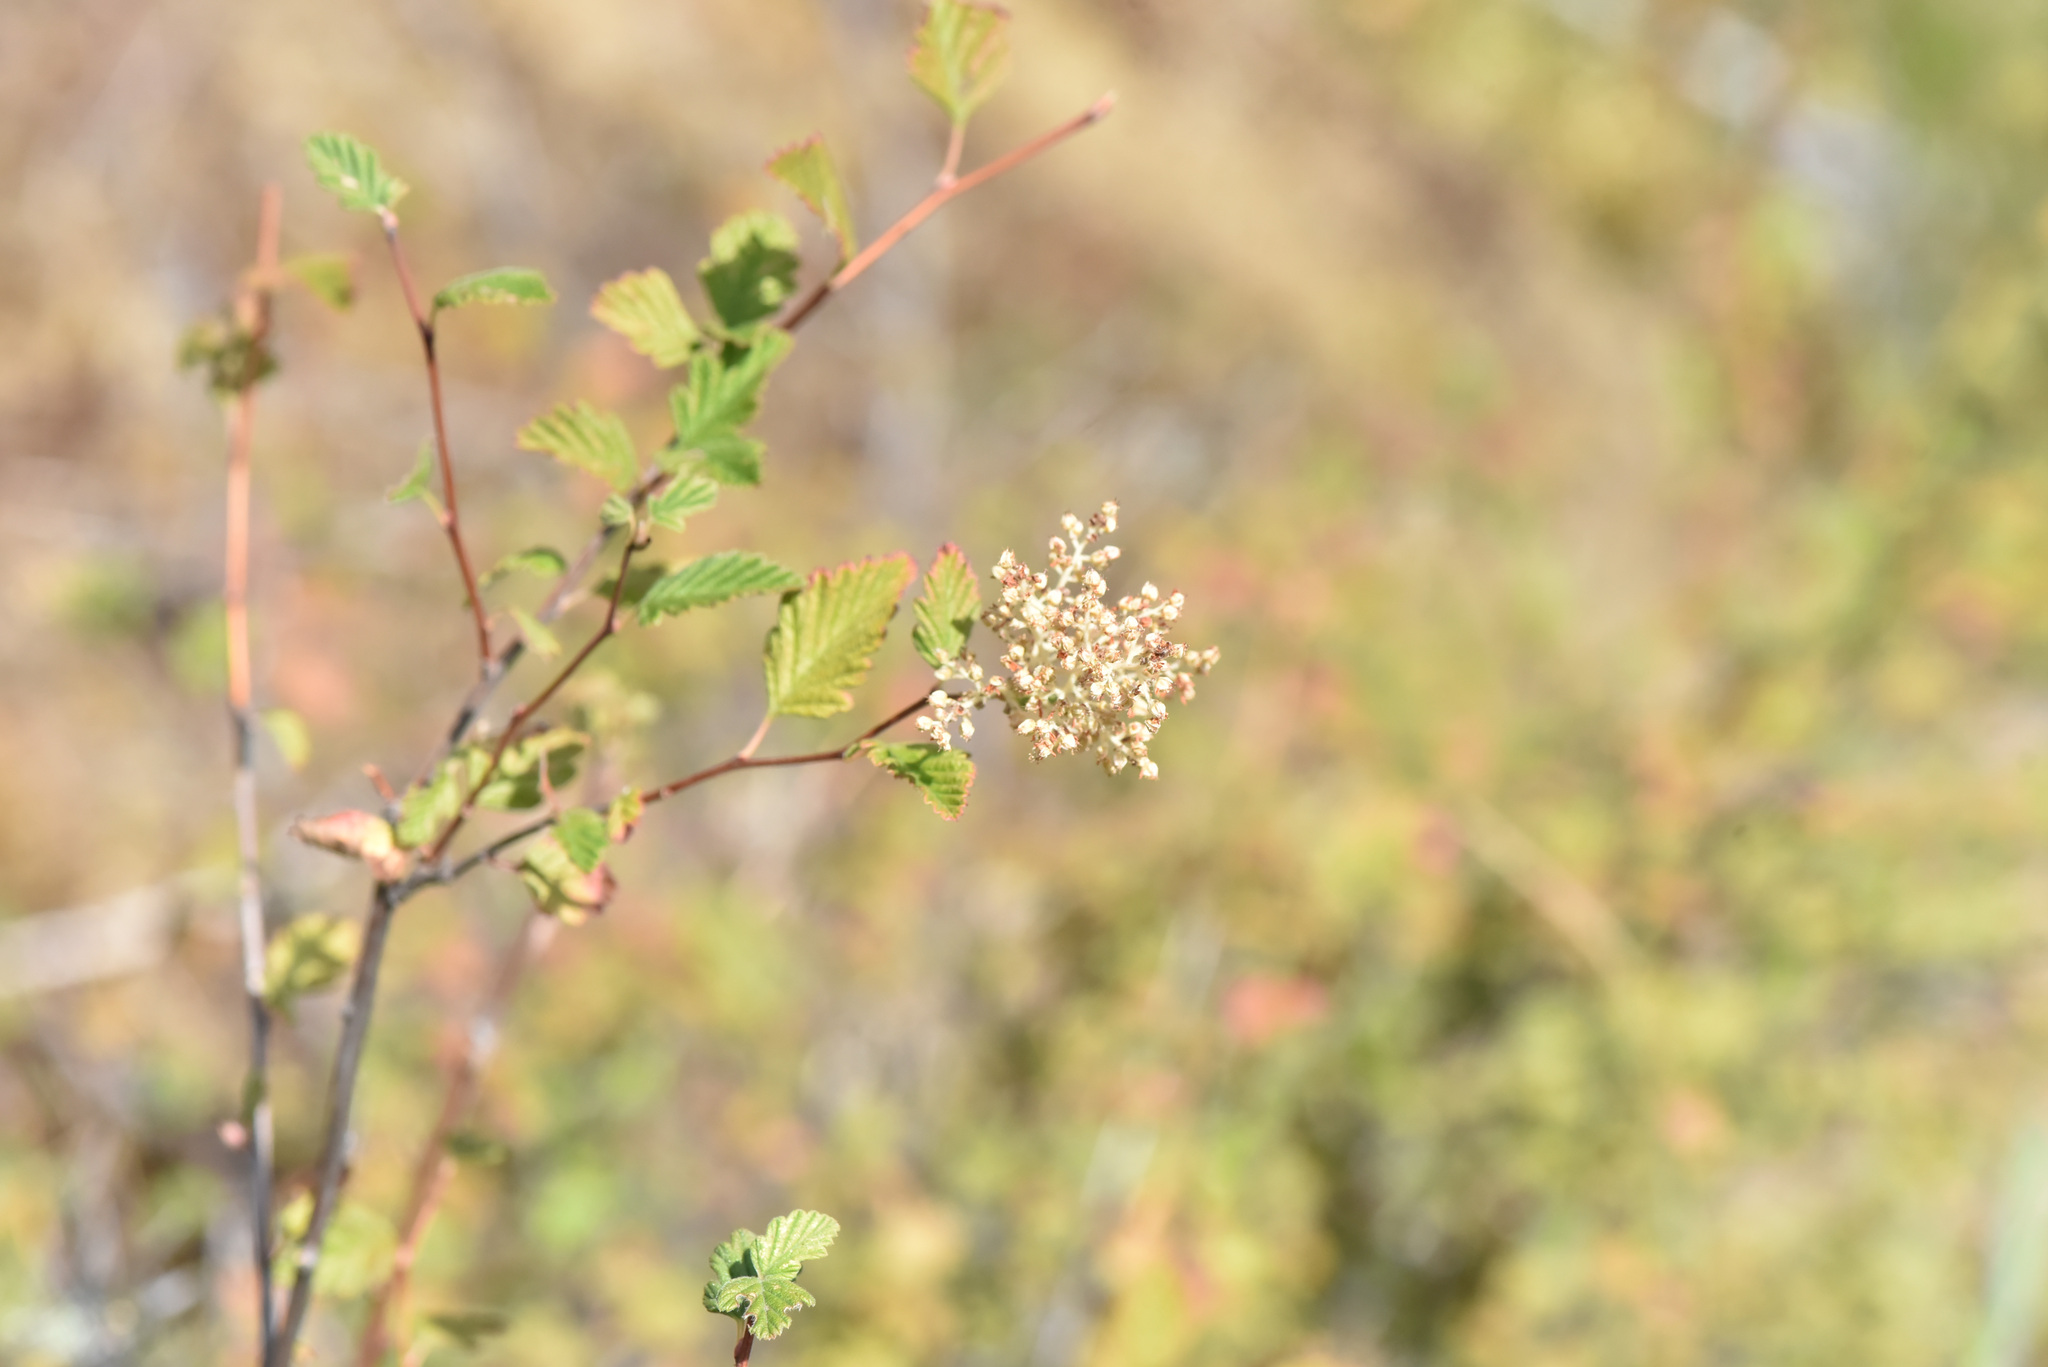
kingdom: Plantae
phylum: Tracheophyta
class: Magnoliopsida
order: Rosales
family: Rosaceae
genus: Holodiscus
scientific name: Holodiscus discolor
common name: Oceanspray
